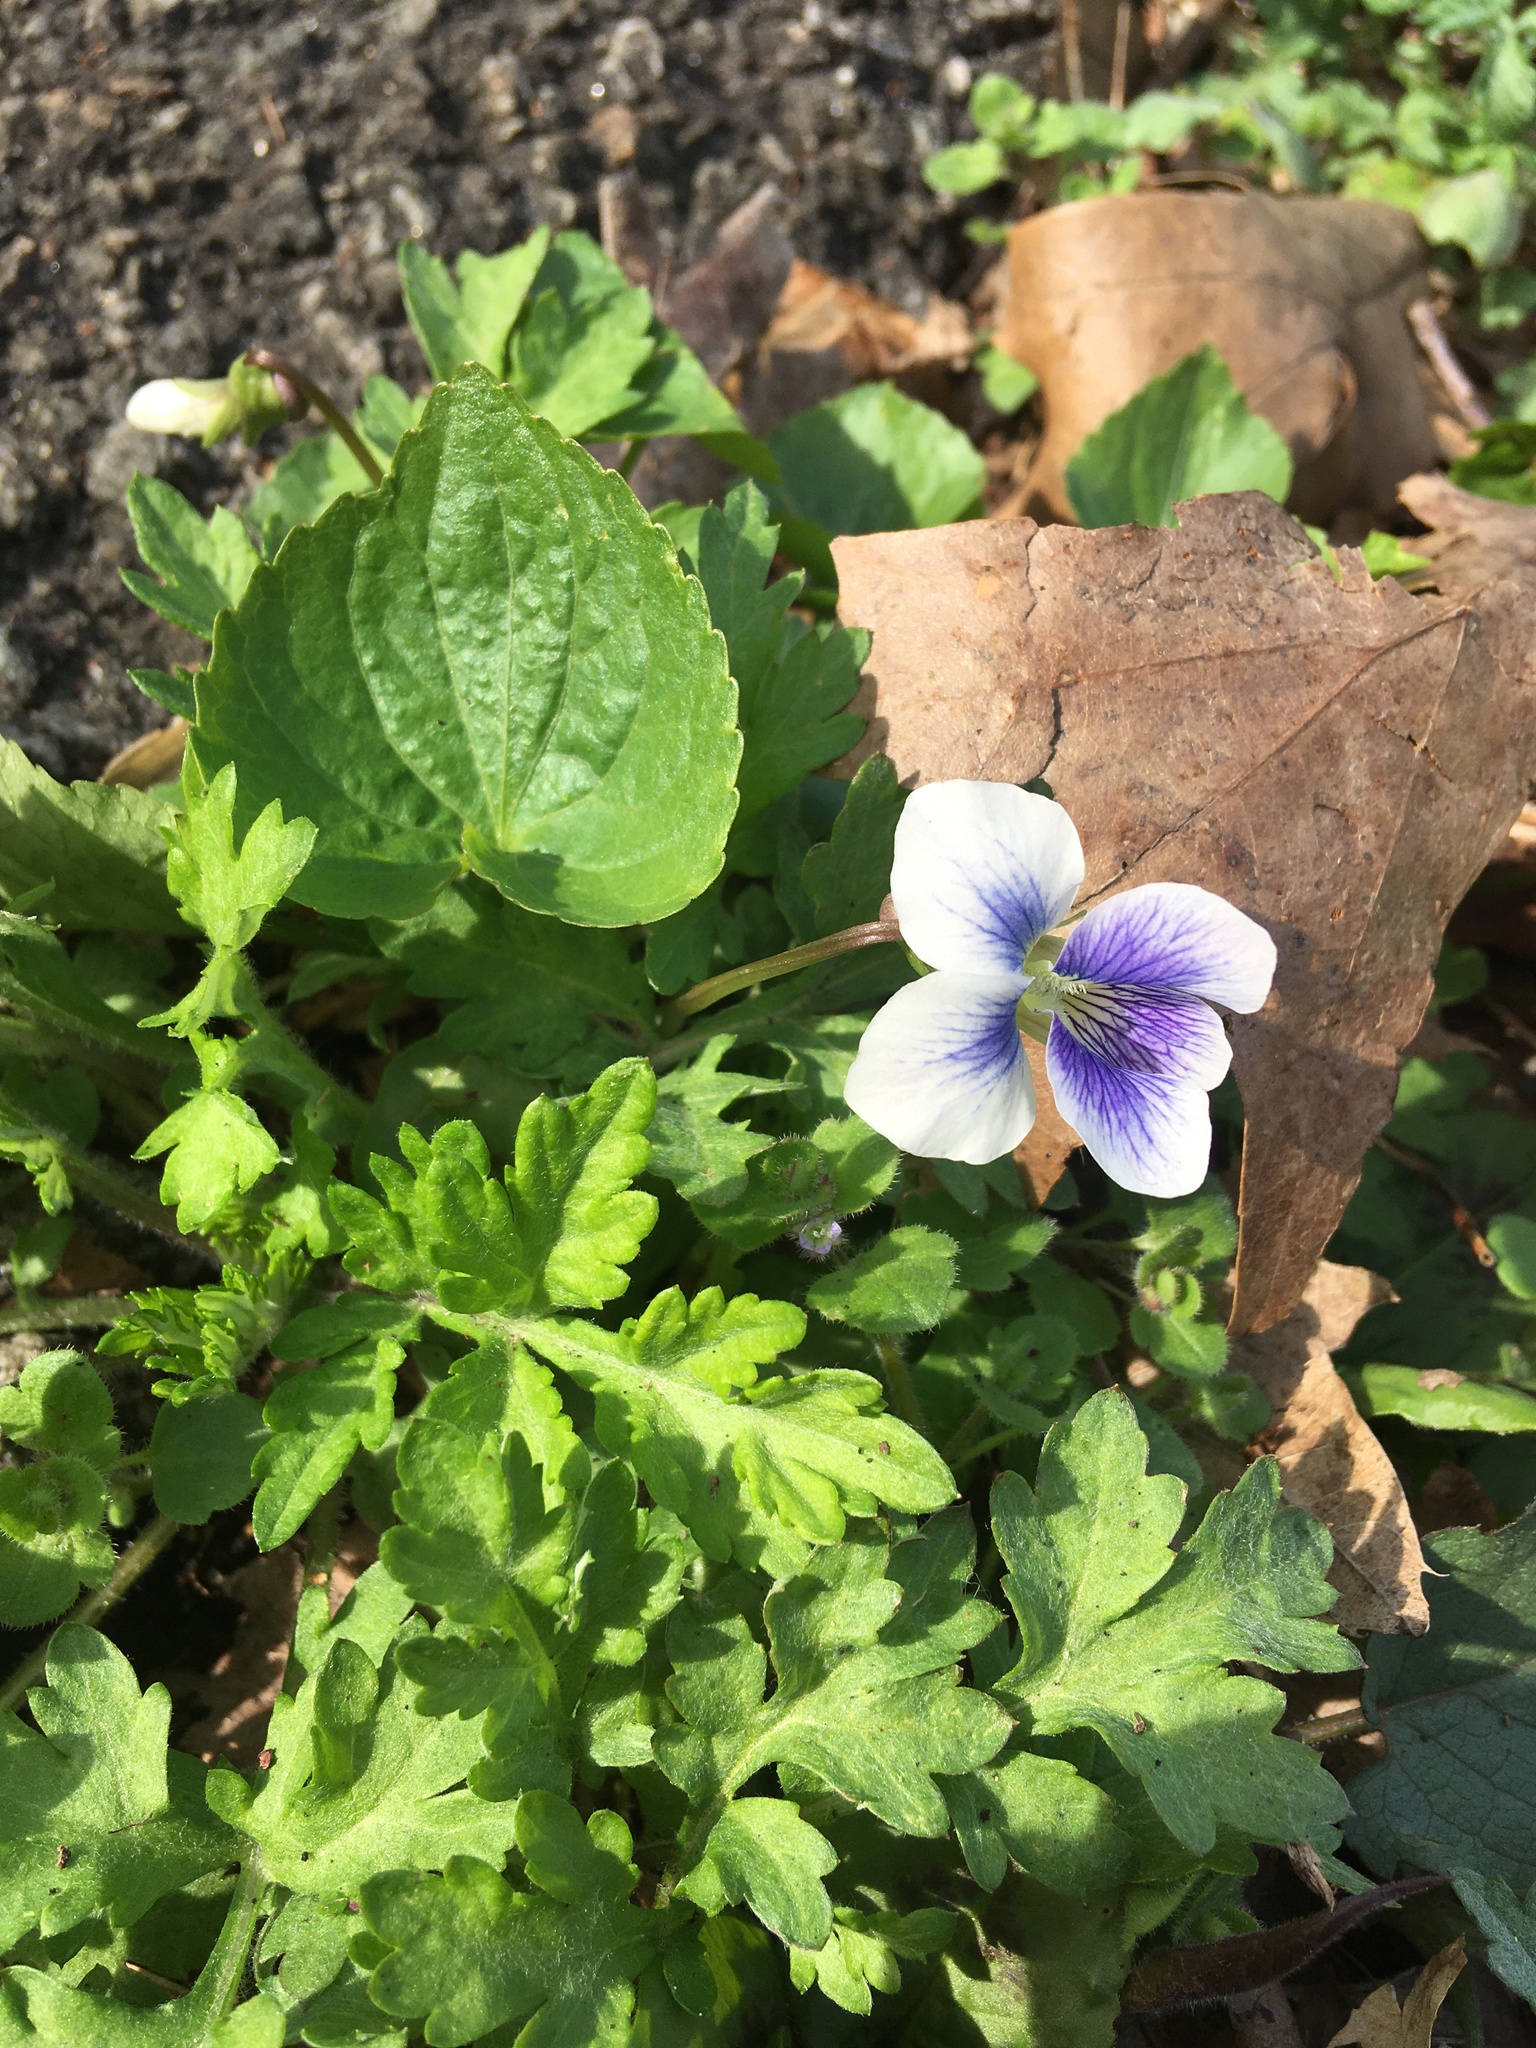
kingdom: Plantae
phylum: Tracheophyta
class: Magnoliopsida
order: Malpighiales
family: Violaceae
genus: Viola
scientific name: Viola sororia
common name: Dooryard violet
